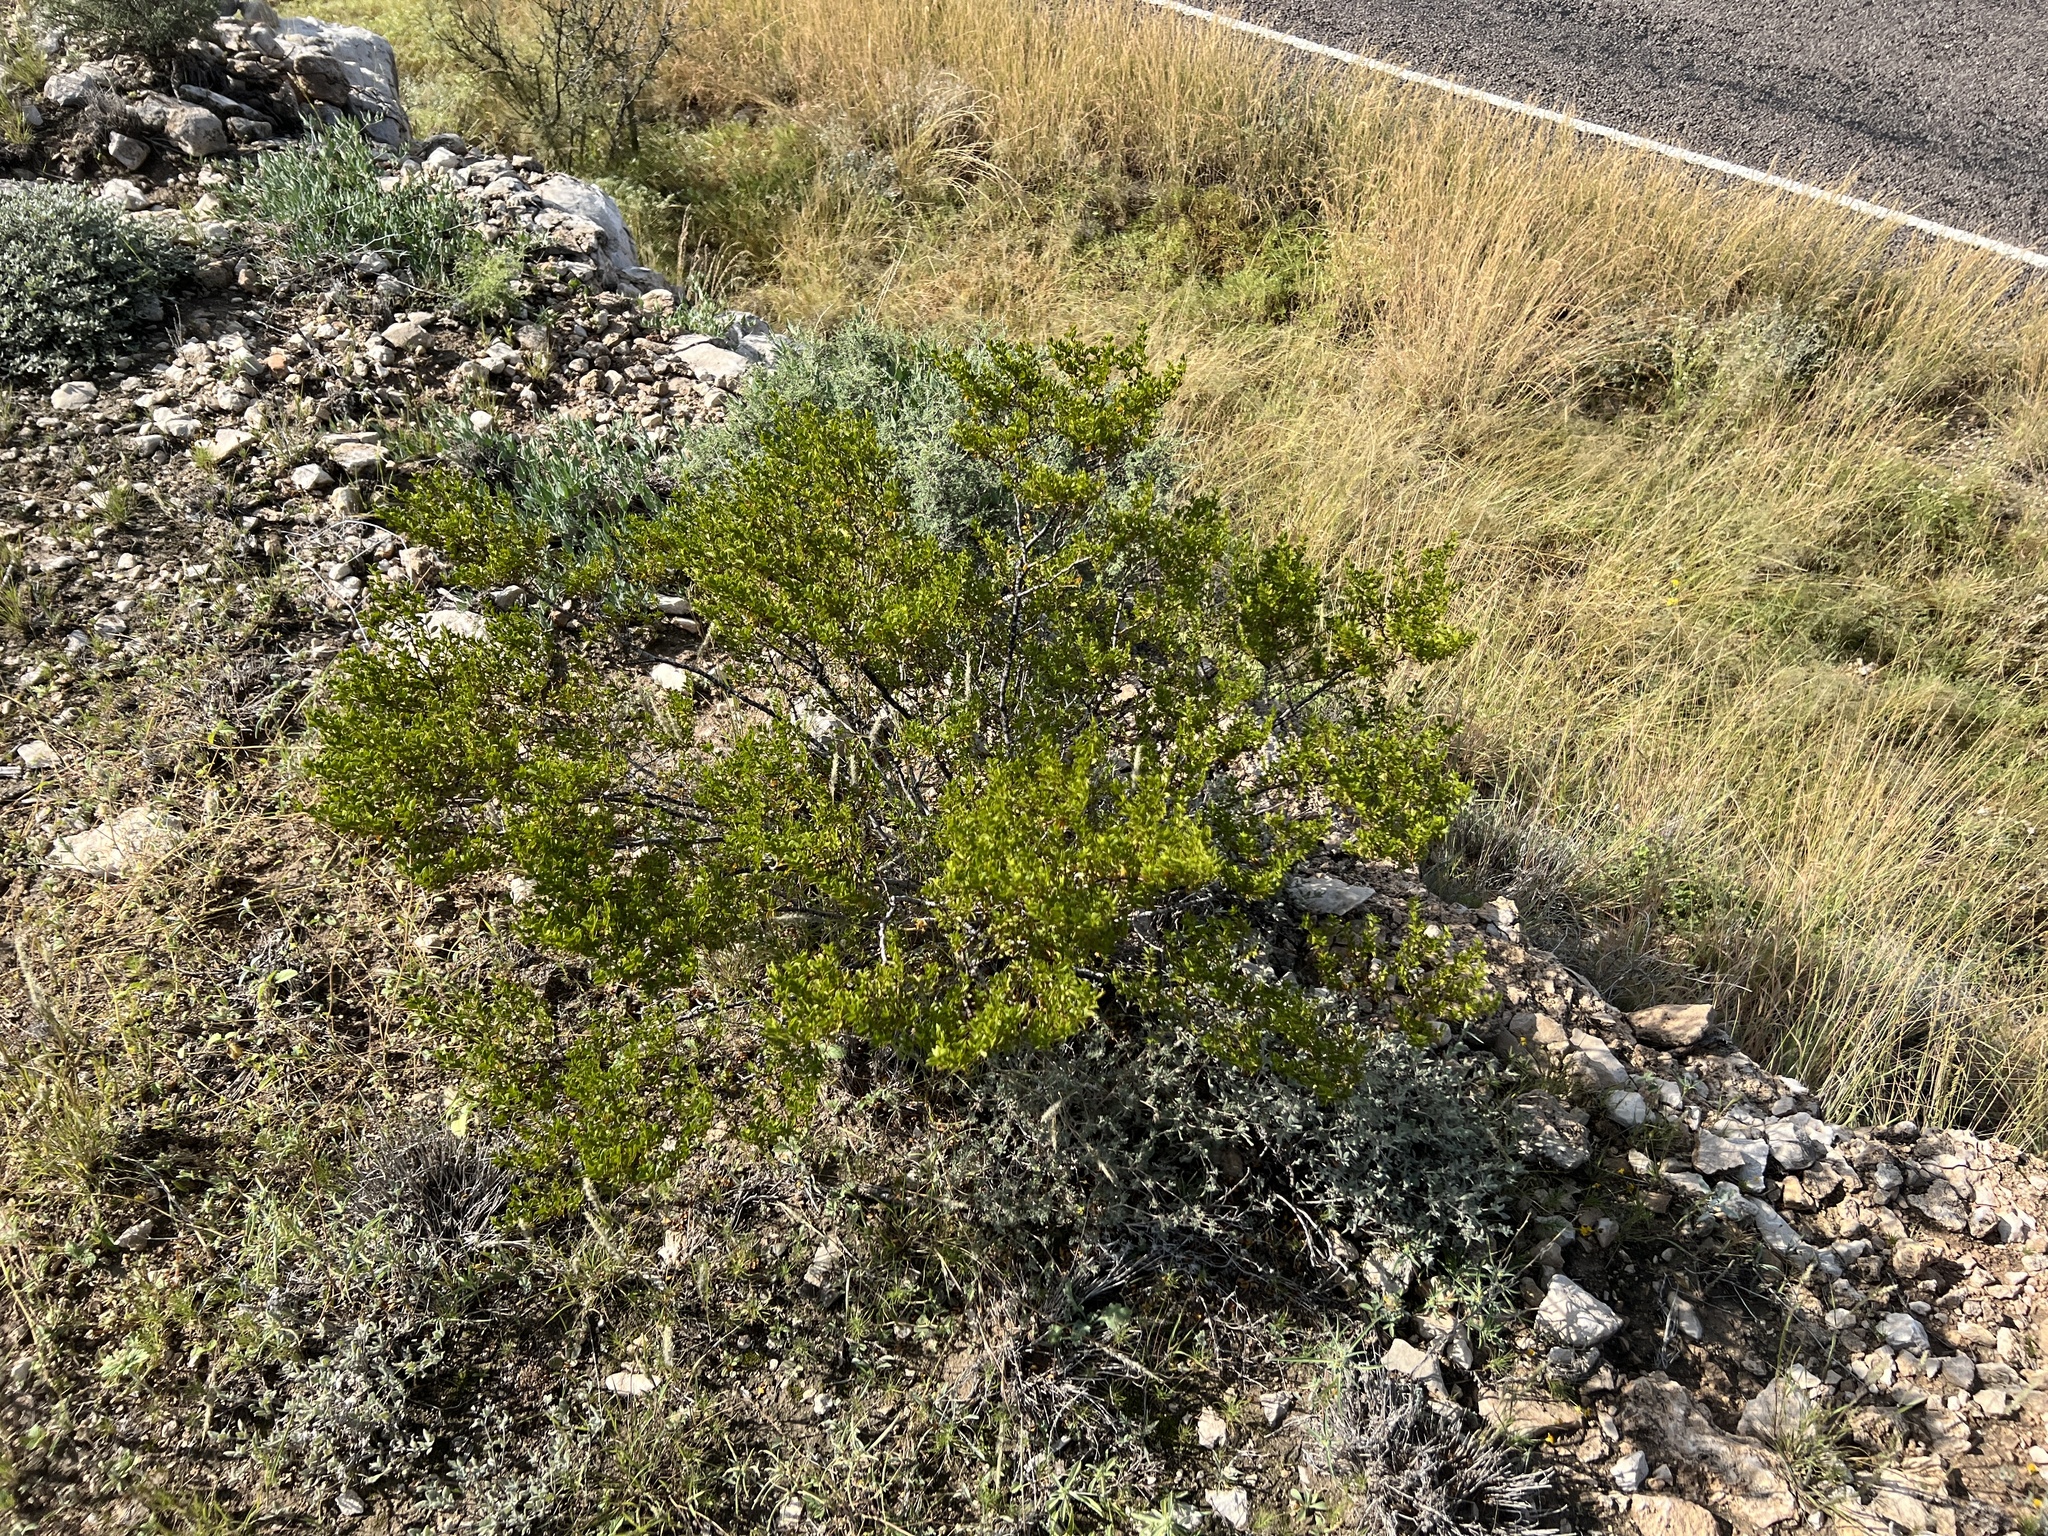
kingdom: Plantae
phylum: Tracheophyta
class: Magnoliopsida
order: Zygophyllales
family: Zygophyllaceae
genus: Larrea
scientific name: Larrea tridentata
